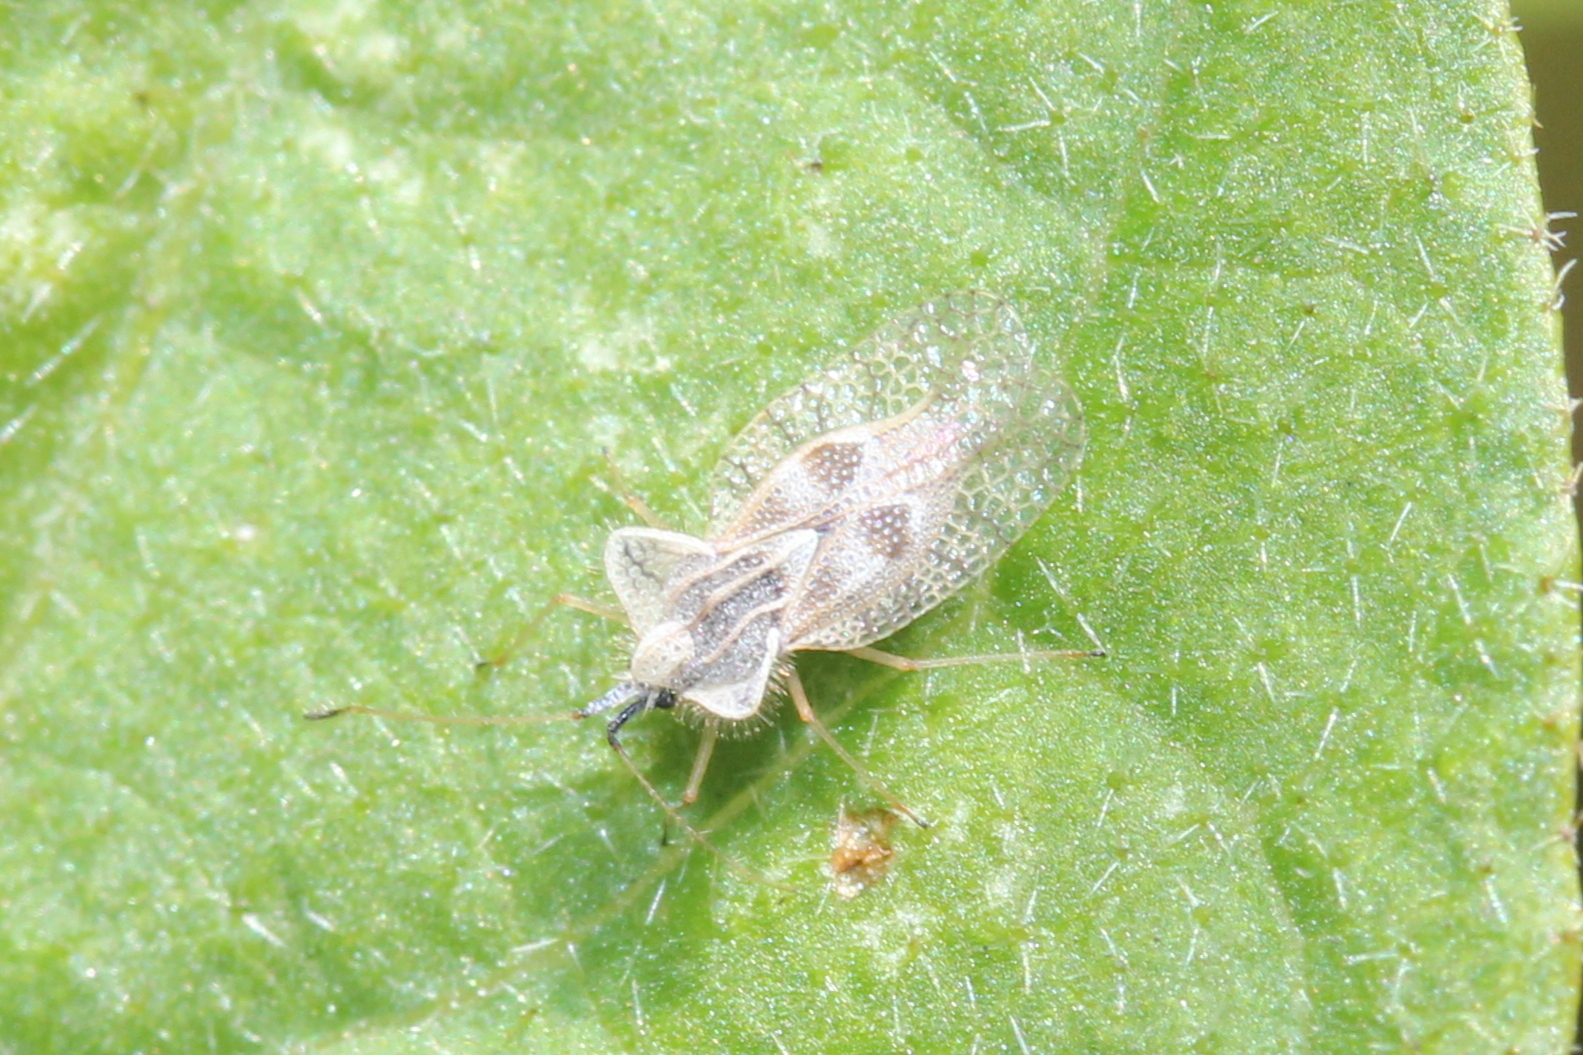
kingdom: Animalia
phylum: Arthropoda
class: Insecta
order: Hemiptera
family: Tingidae
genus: Gargaphia
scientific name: Gargaphia solani
